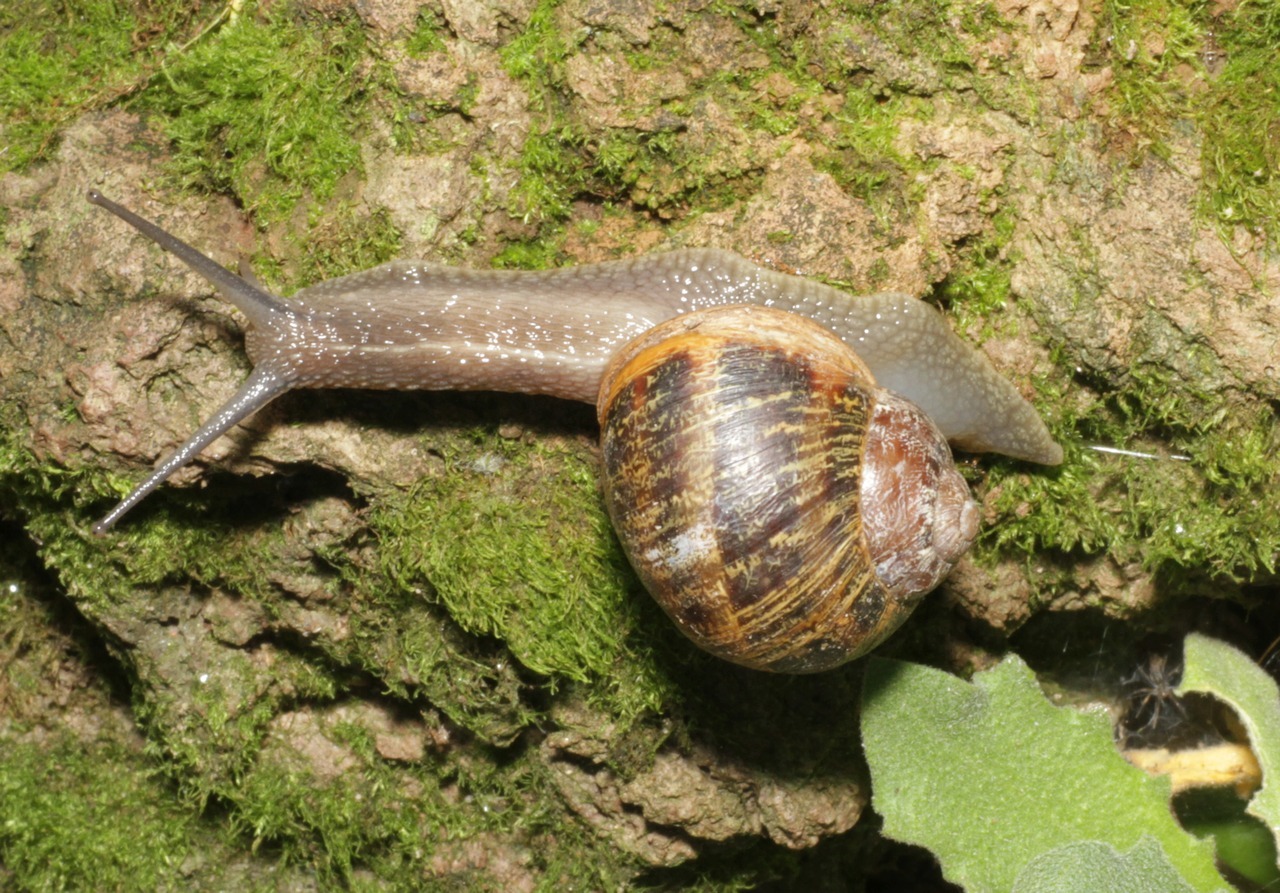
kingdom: Animalia
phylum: Mollusca
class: Gastropoda
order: Stylommatophora
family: Helicidae
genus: Cornu
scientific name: Cornu aspersum
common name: Brown garden snail
